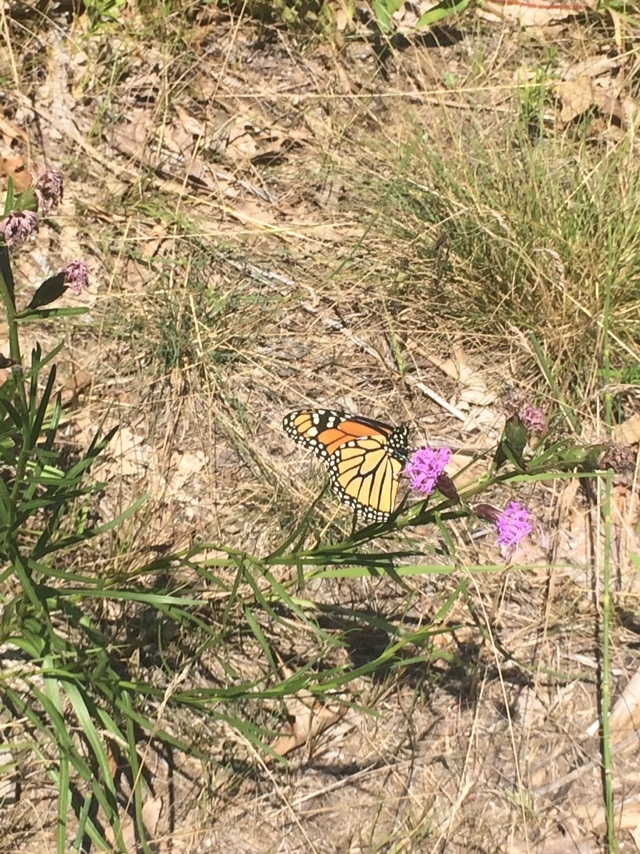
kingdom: Animalia
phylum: Arthropoda
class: Insecta
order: Lepidoptera
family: Nymphalidae
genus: Danaus
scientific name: Danaus plexippus
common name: Monarch
